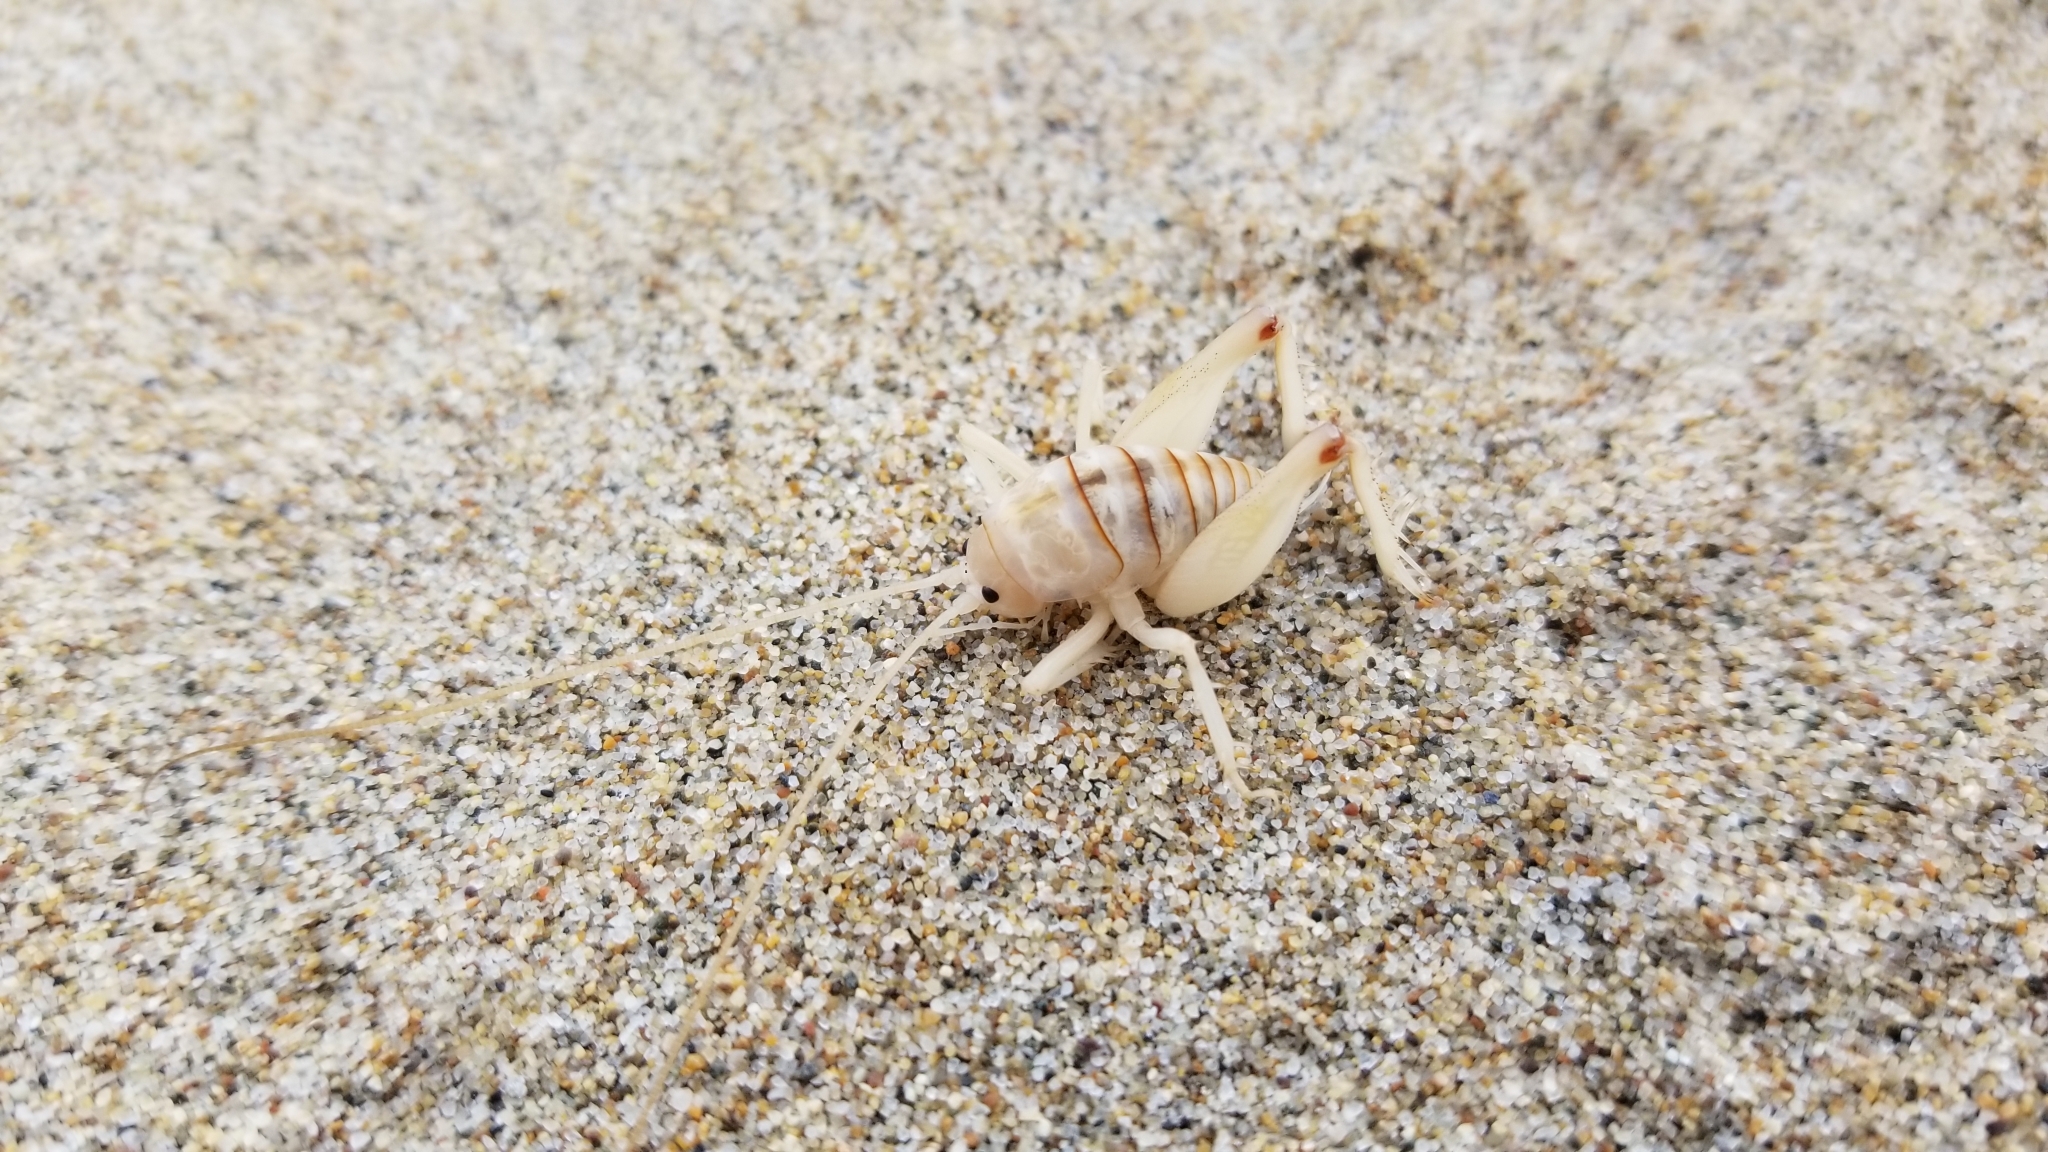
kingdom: Animalia
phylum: Arthropoda
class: Insecta
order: Orthoptera
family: Rhaphidophoridae
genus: Rhachocnemis
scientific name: Rhachocnemis validus
